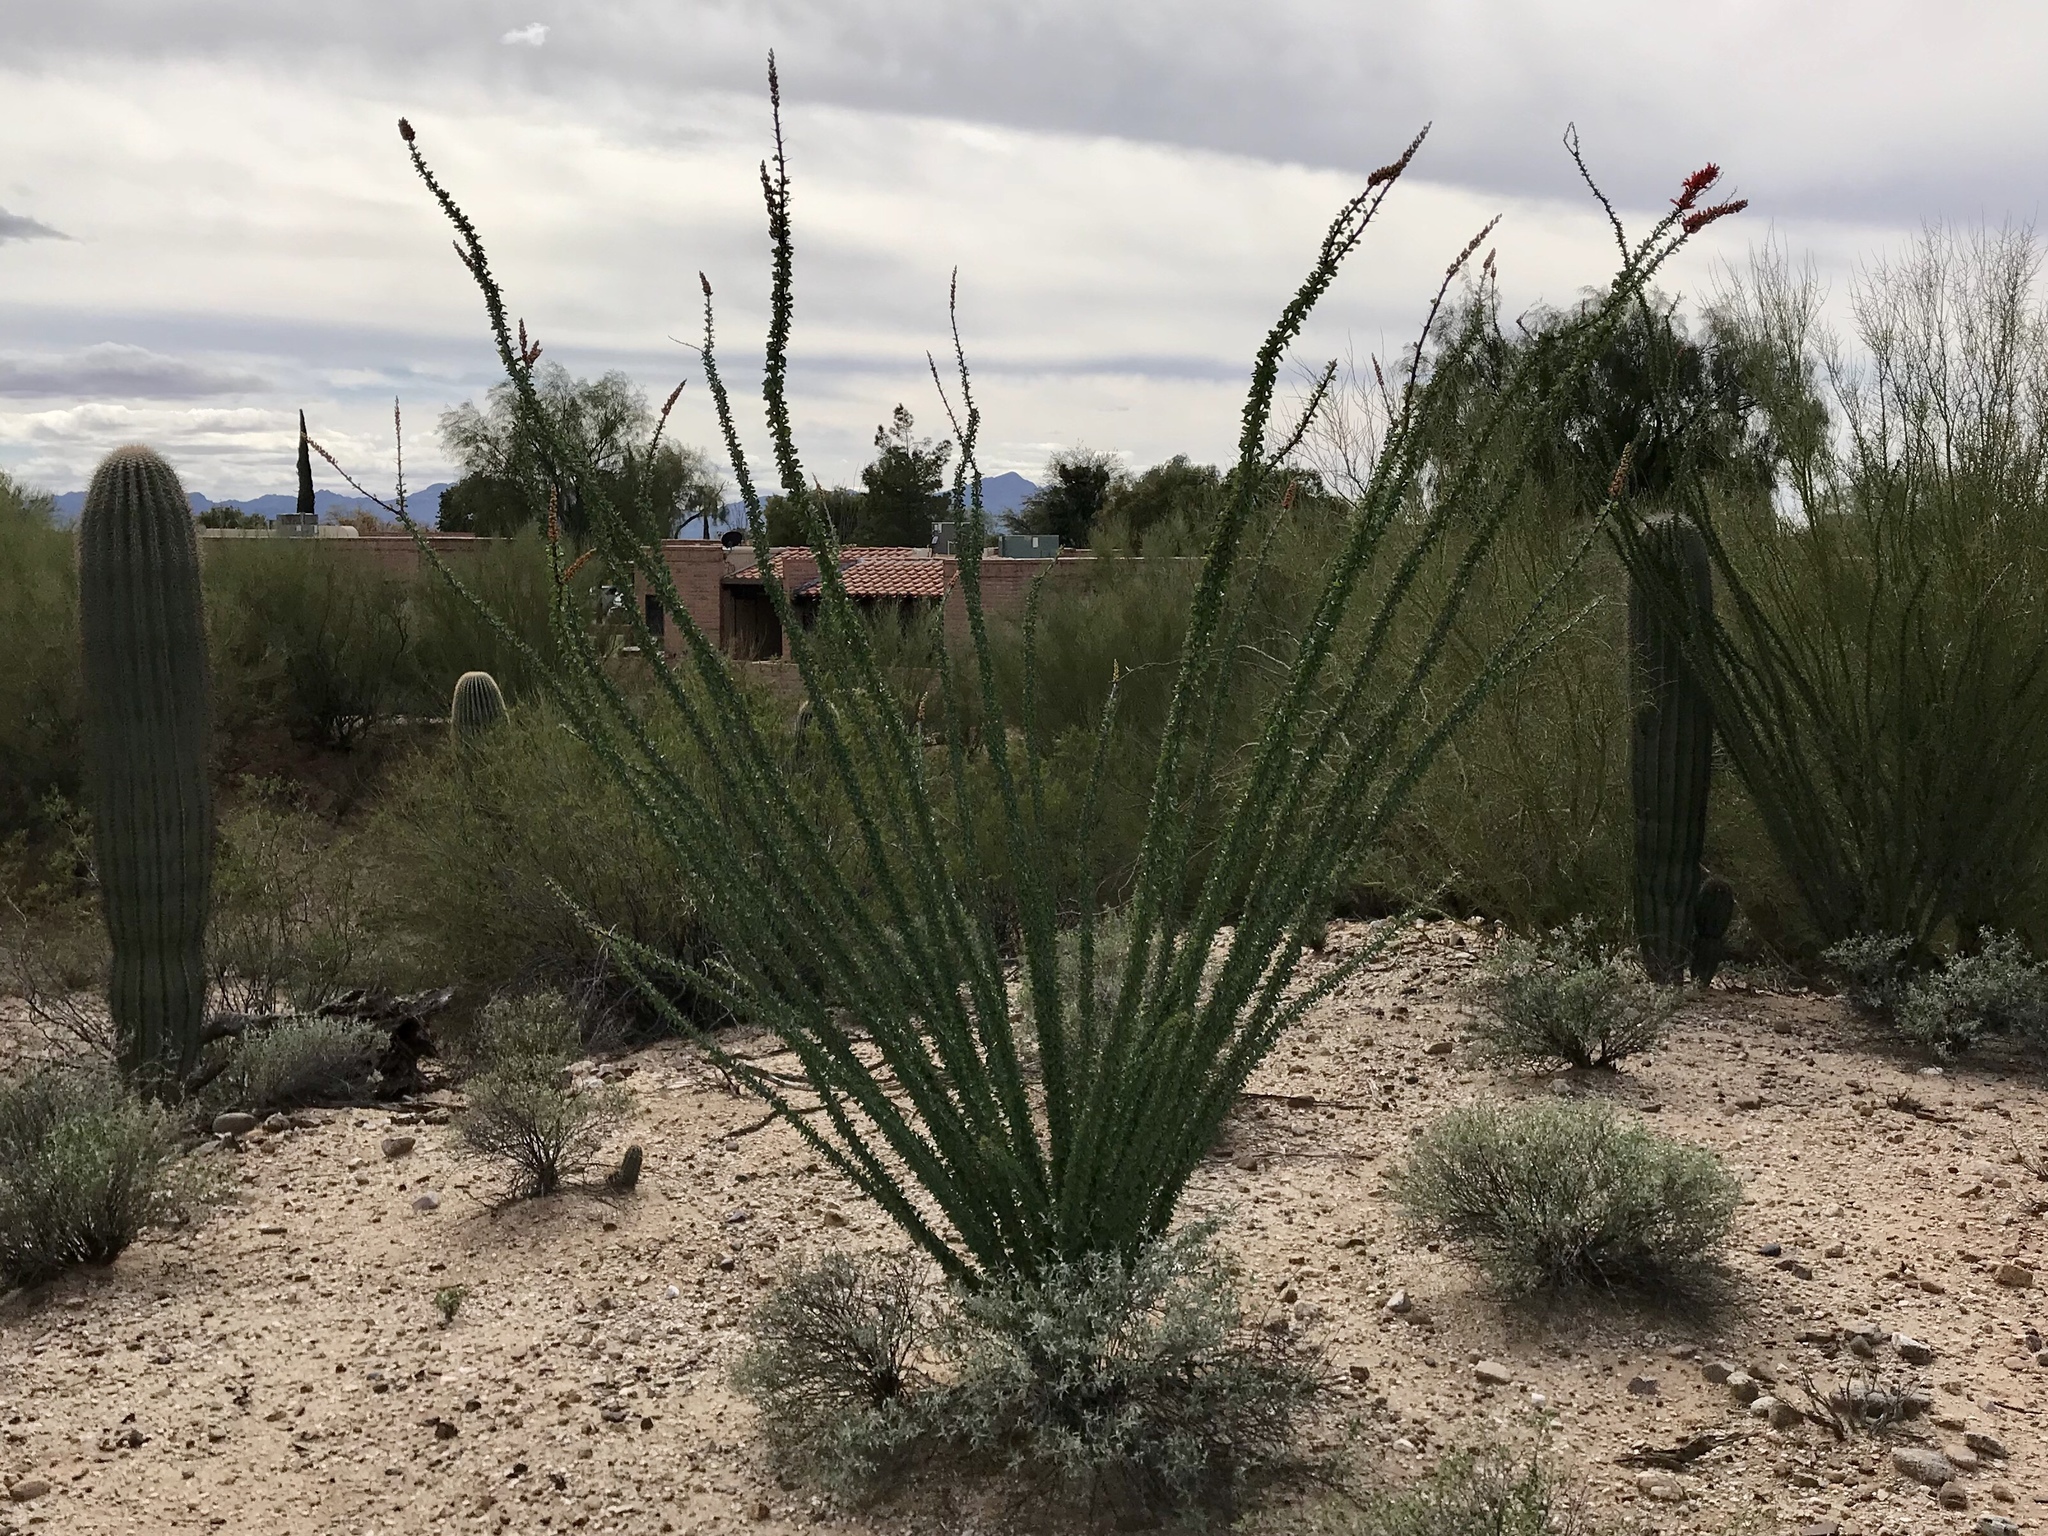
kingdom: Plantae
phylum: Tracheophyta
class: Magnoliopsida
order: Ericales
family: Fouquieriaceae
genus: Fouquieria
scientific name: Fouquieria splendens
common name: Vine-cactus
